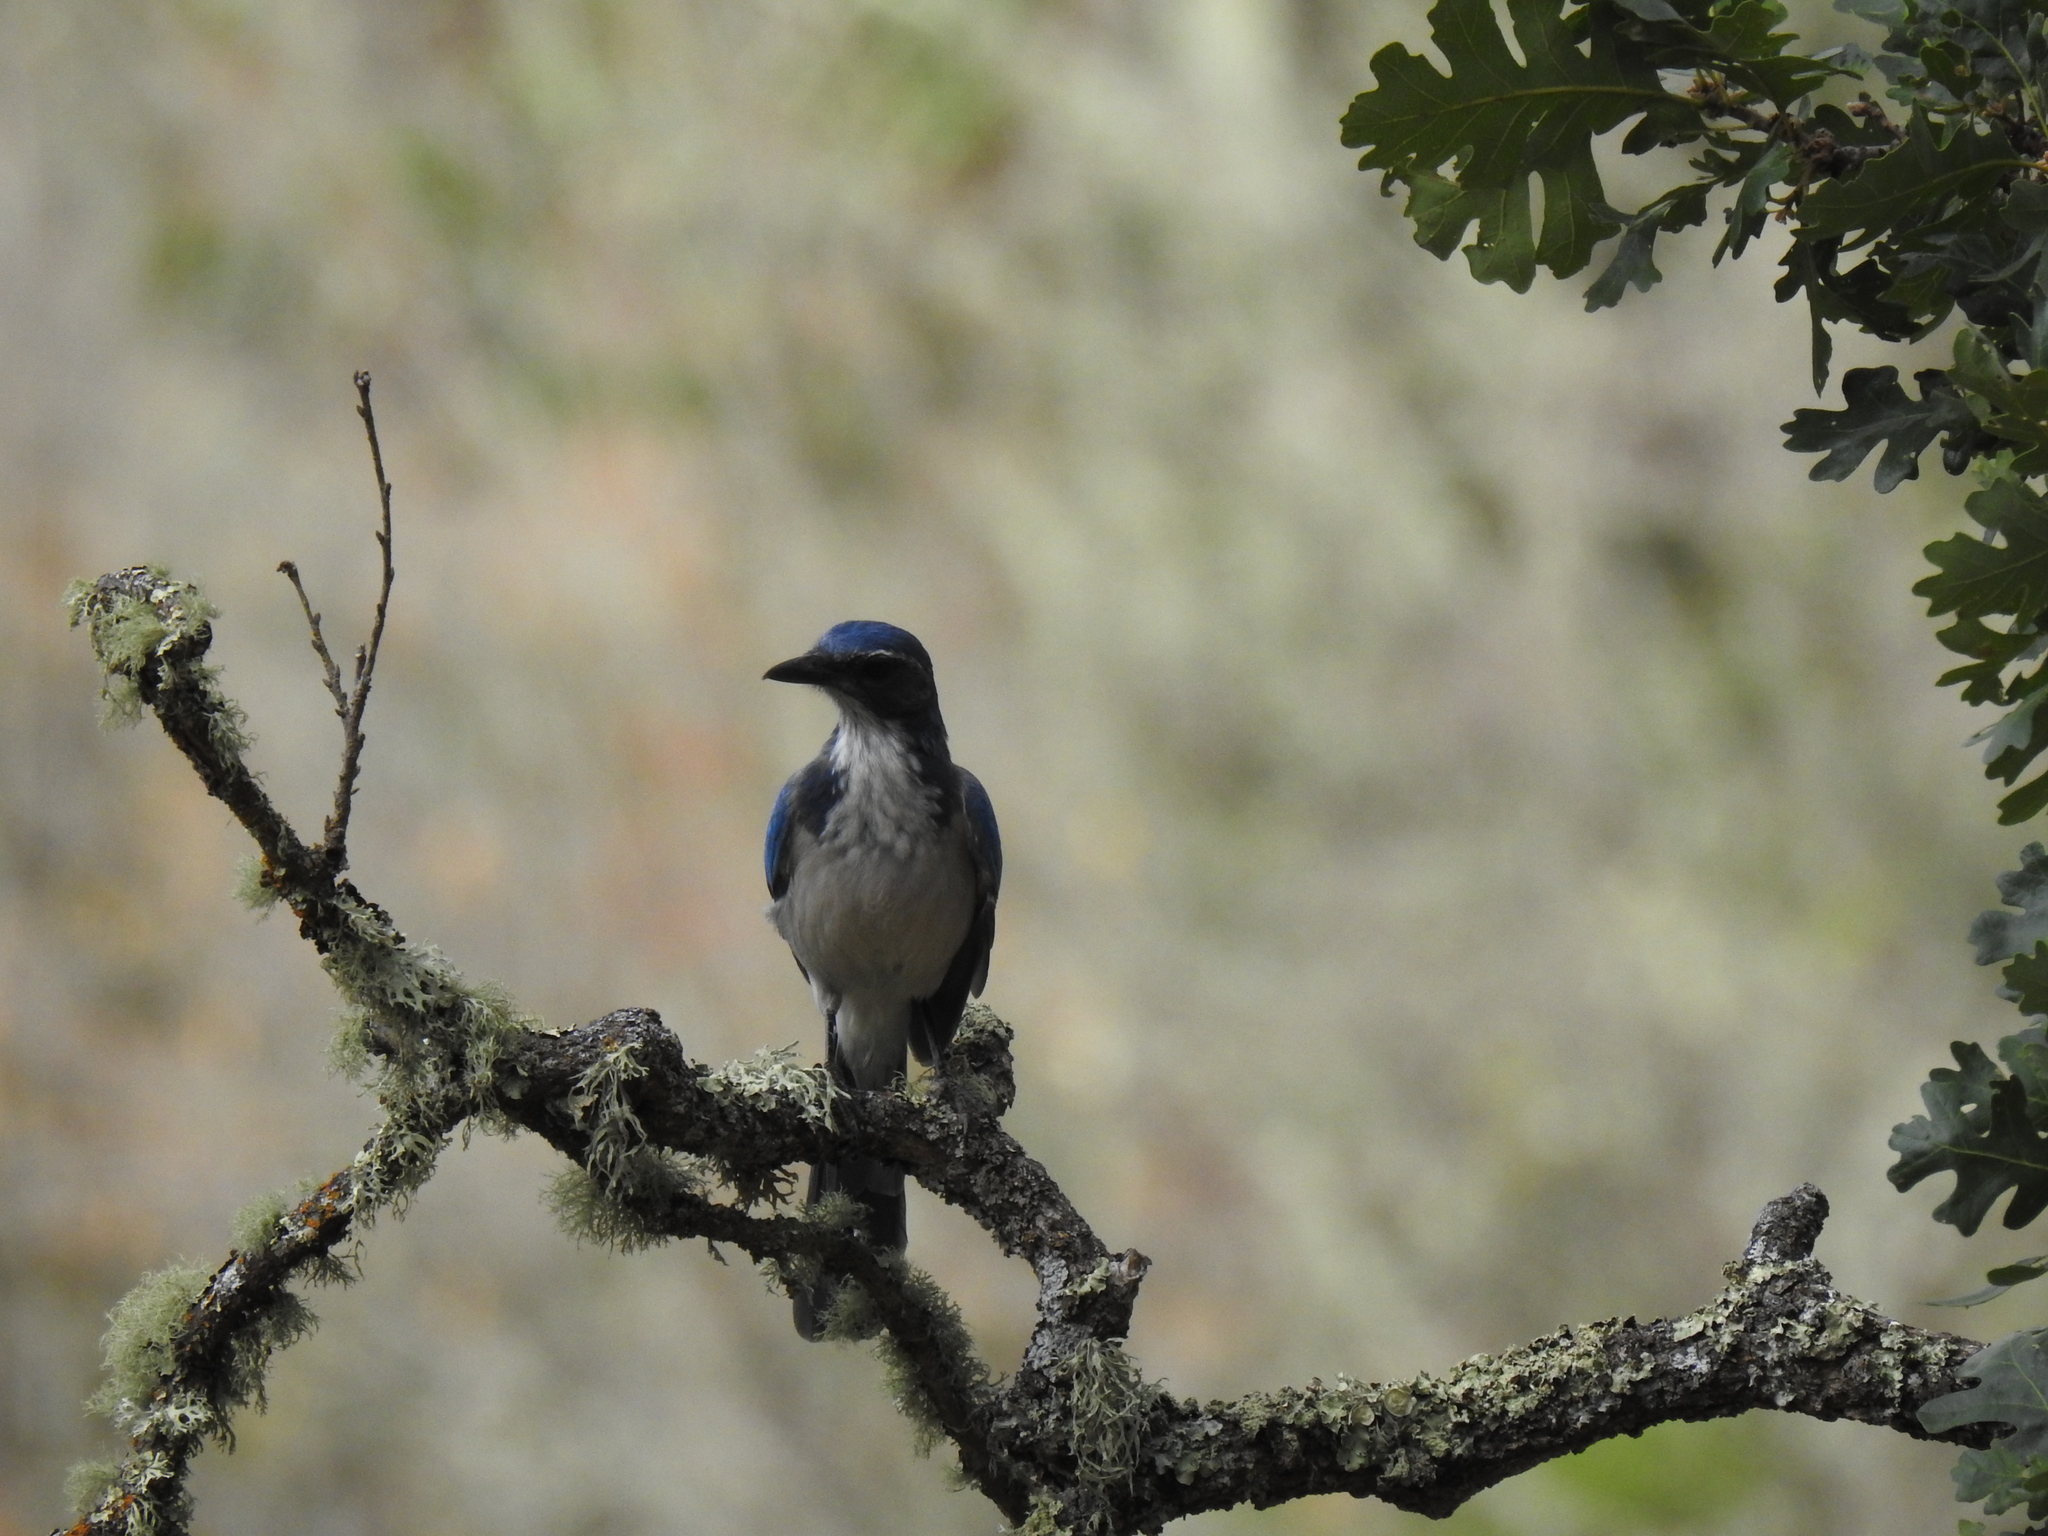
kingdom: Animalia
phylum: Chordata
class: Aves
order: Passeriformes
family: Corvidae
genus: Aphelocoma
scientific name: Aphelocoma californica
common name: California scrub-jay
